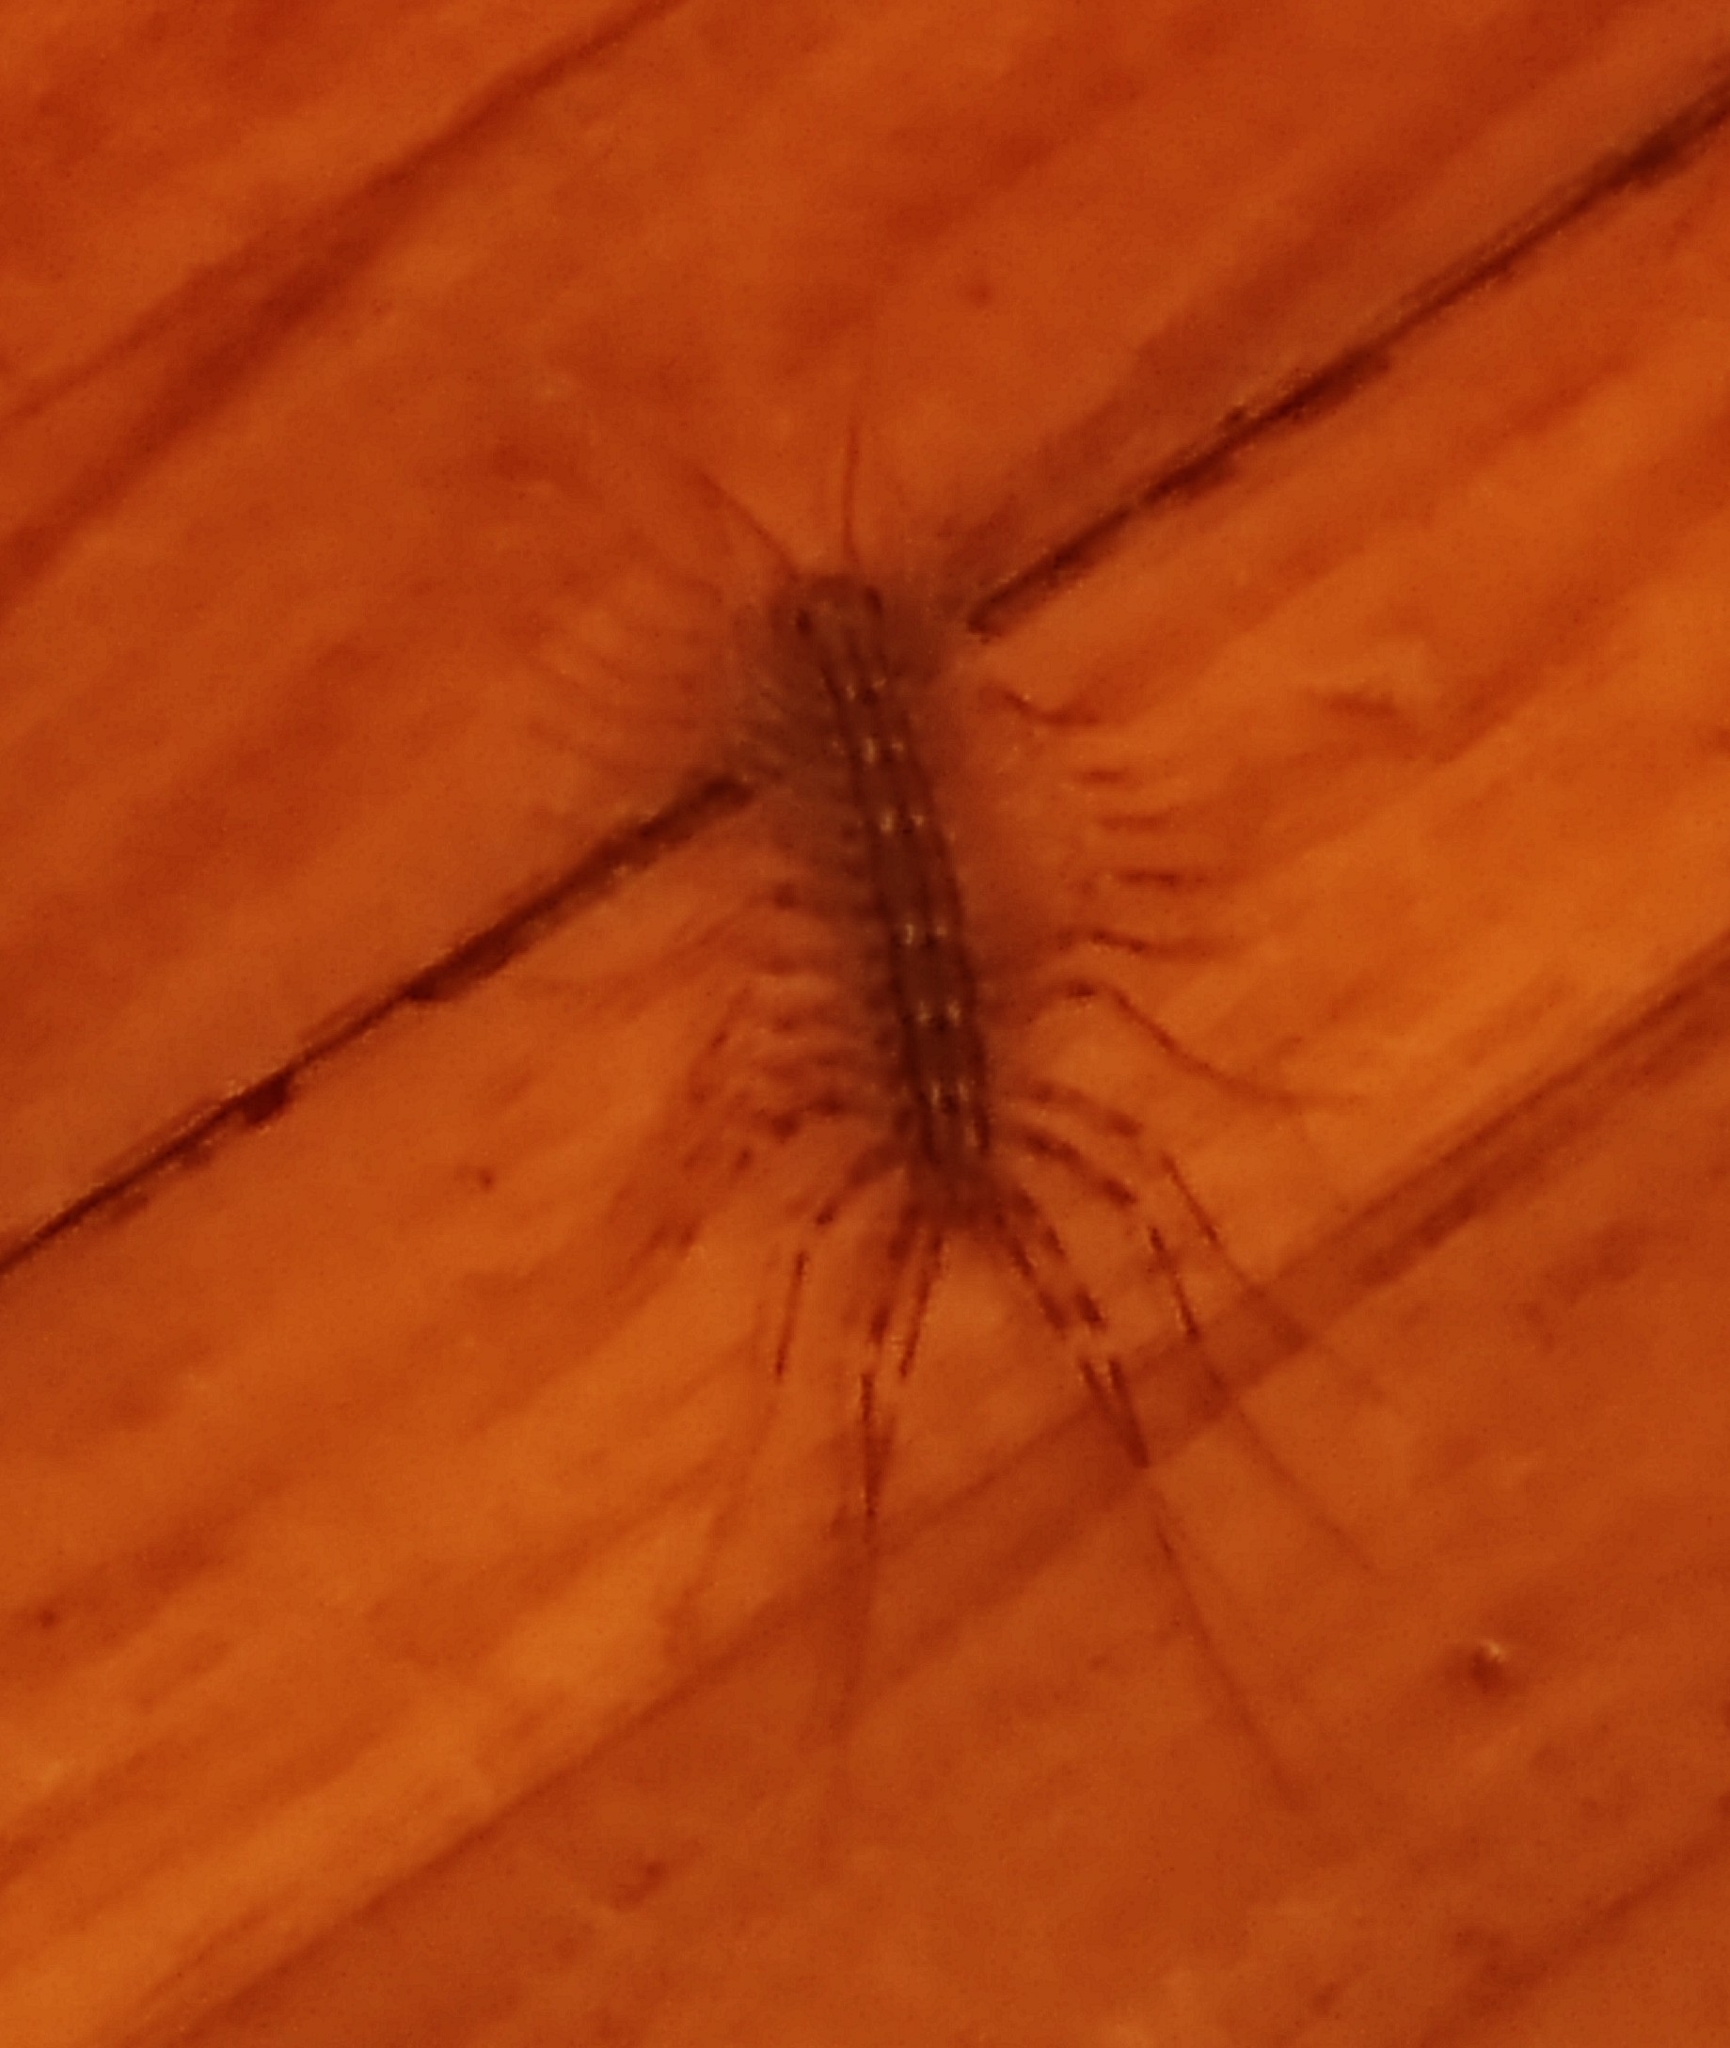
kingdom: Animalia
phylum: Arthropoda
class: Chilopoda
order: Scutigeromorpha
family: Scutigeridae
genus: Scutigera
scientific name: Scutigera coleoptrata
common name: House centipede
